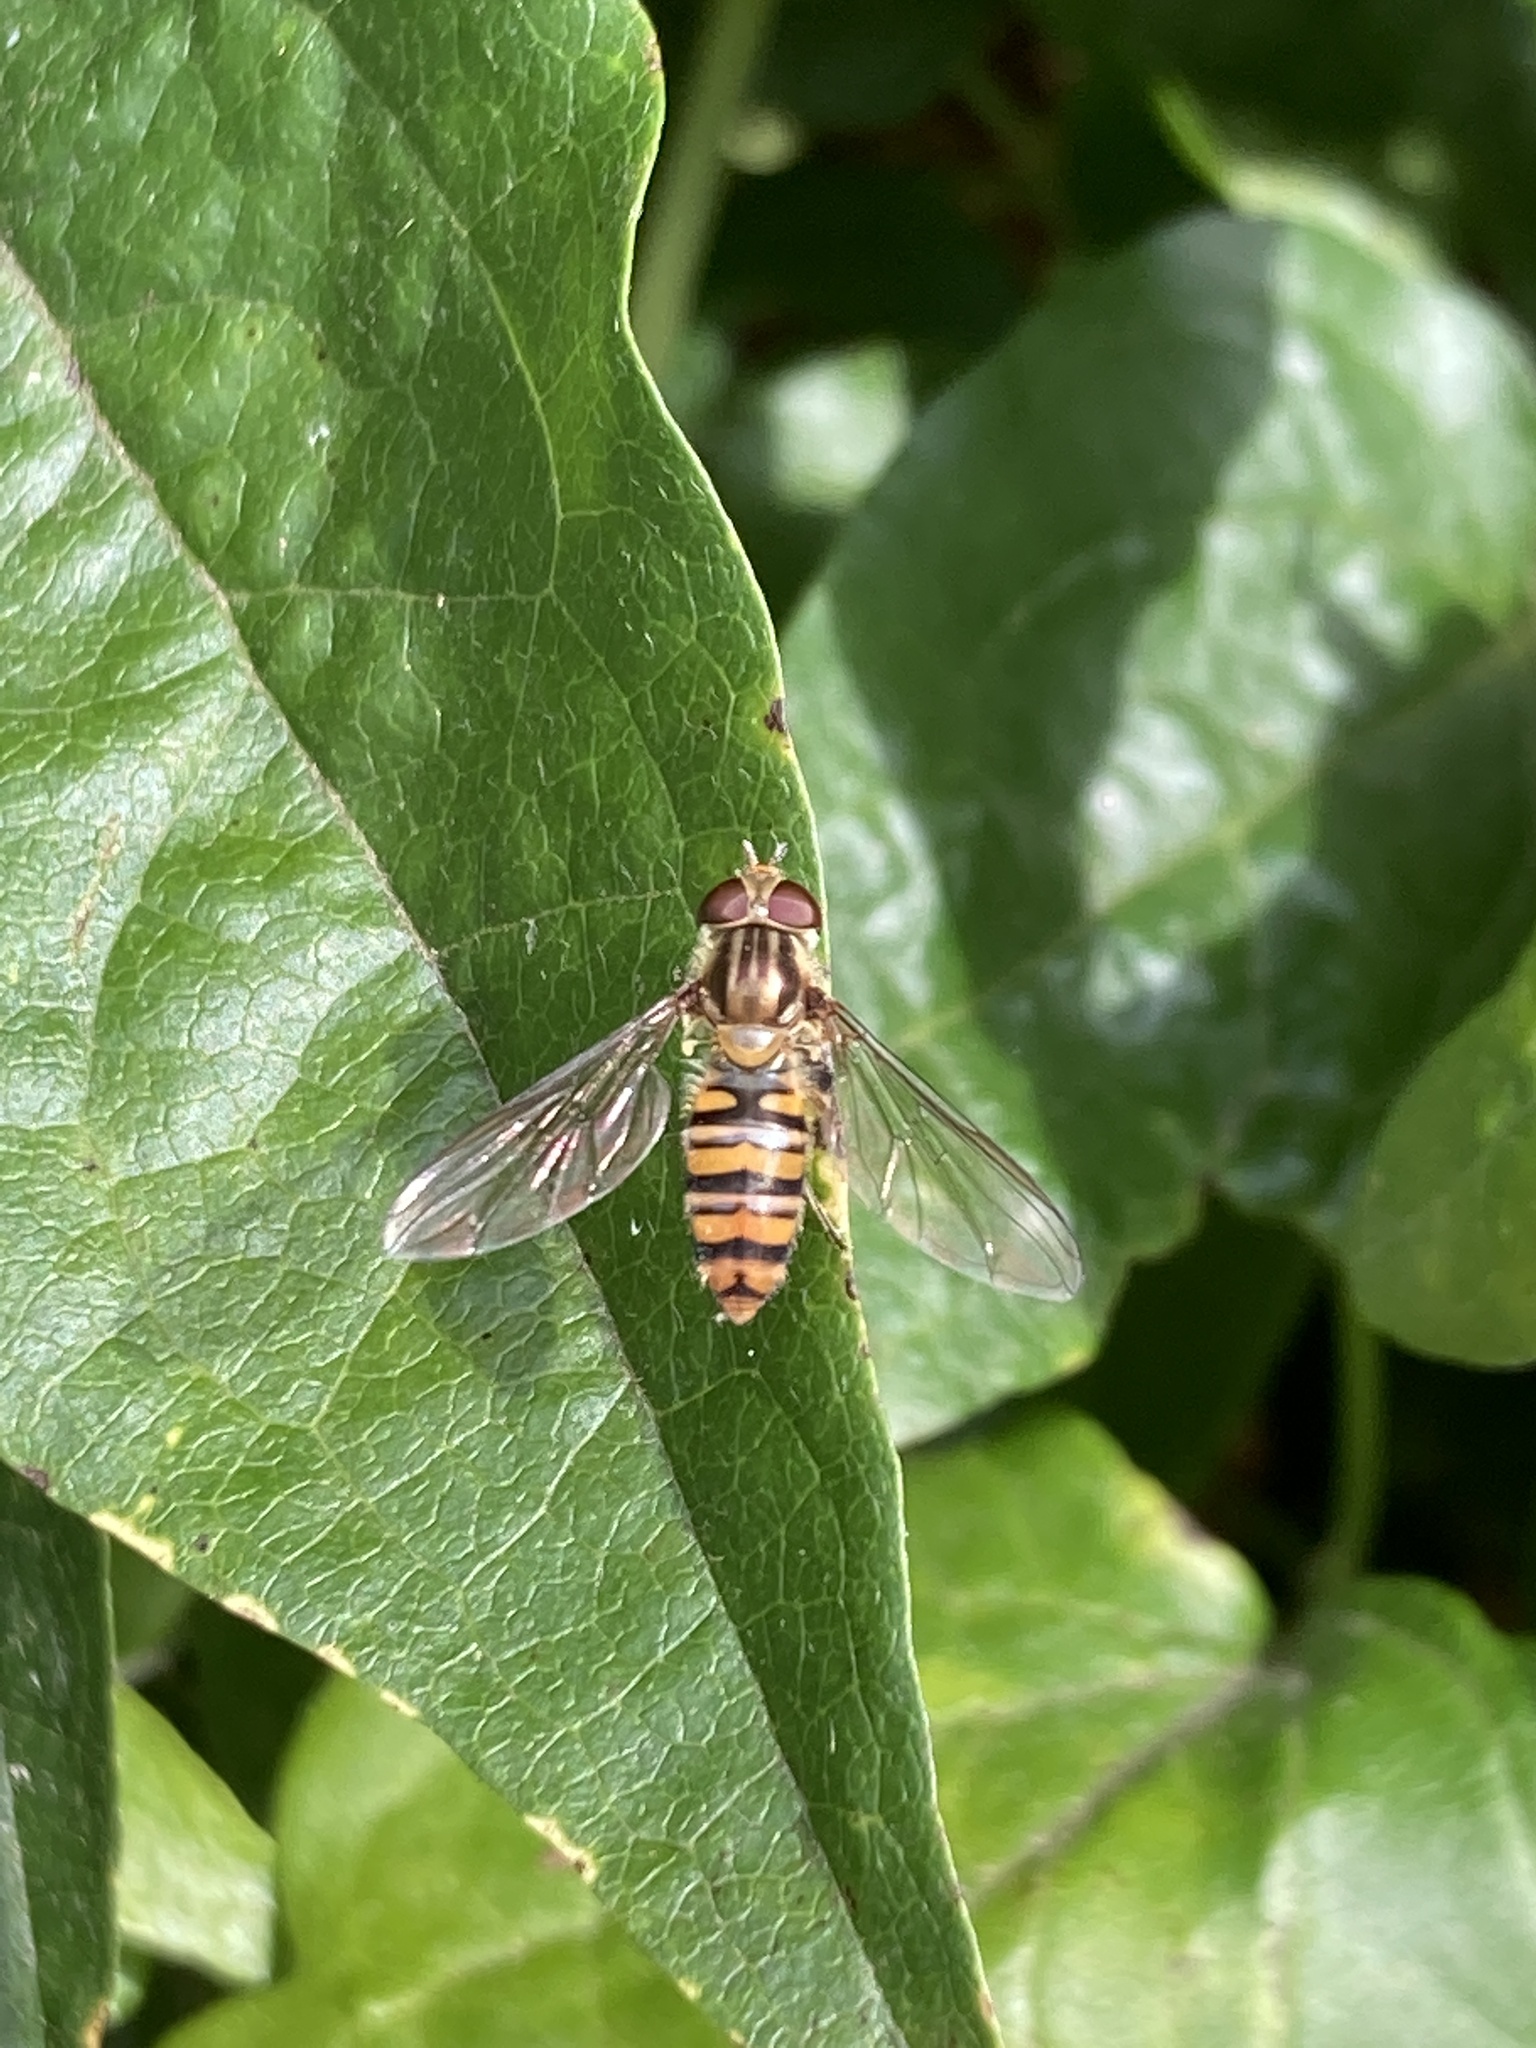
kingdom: Animalia
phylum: Arthropoda
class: Insecta
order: Diptera
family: Syrphidae
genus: Episyrphus
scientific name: Episyrphus balteatus
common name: Marmalade hoverfly
